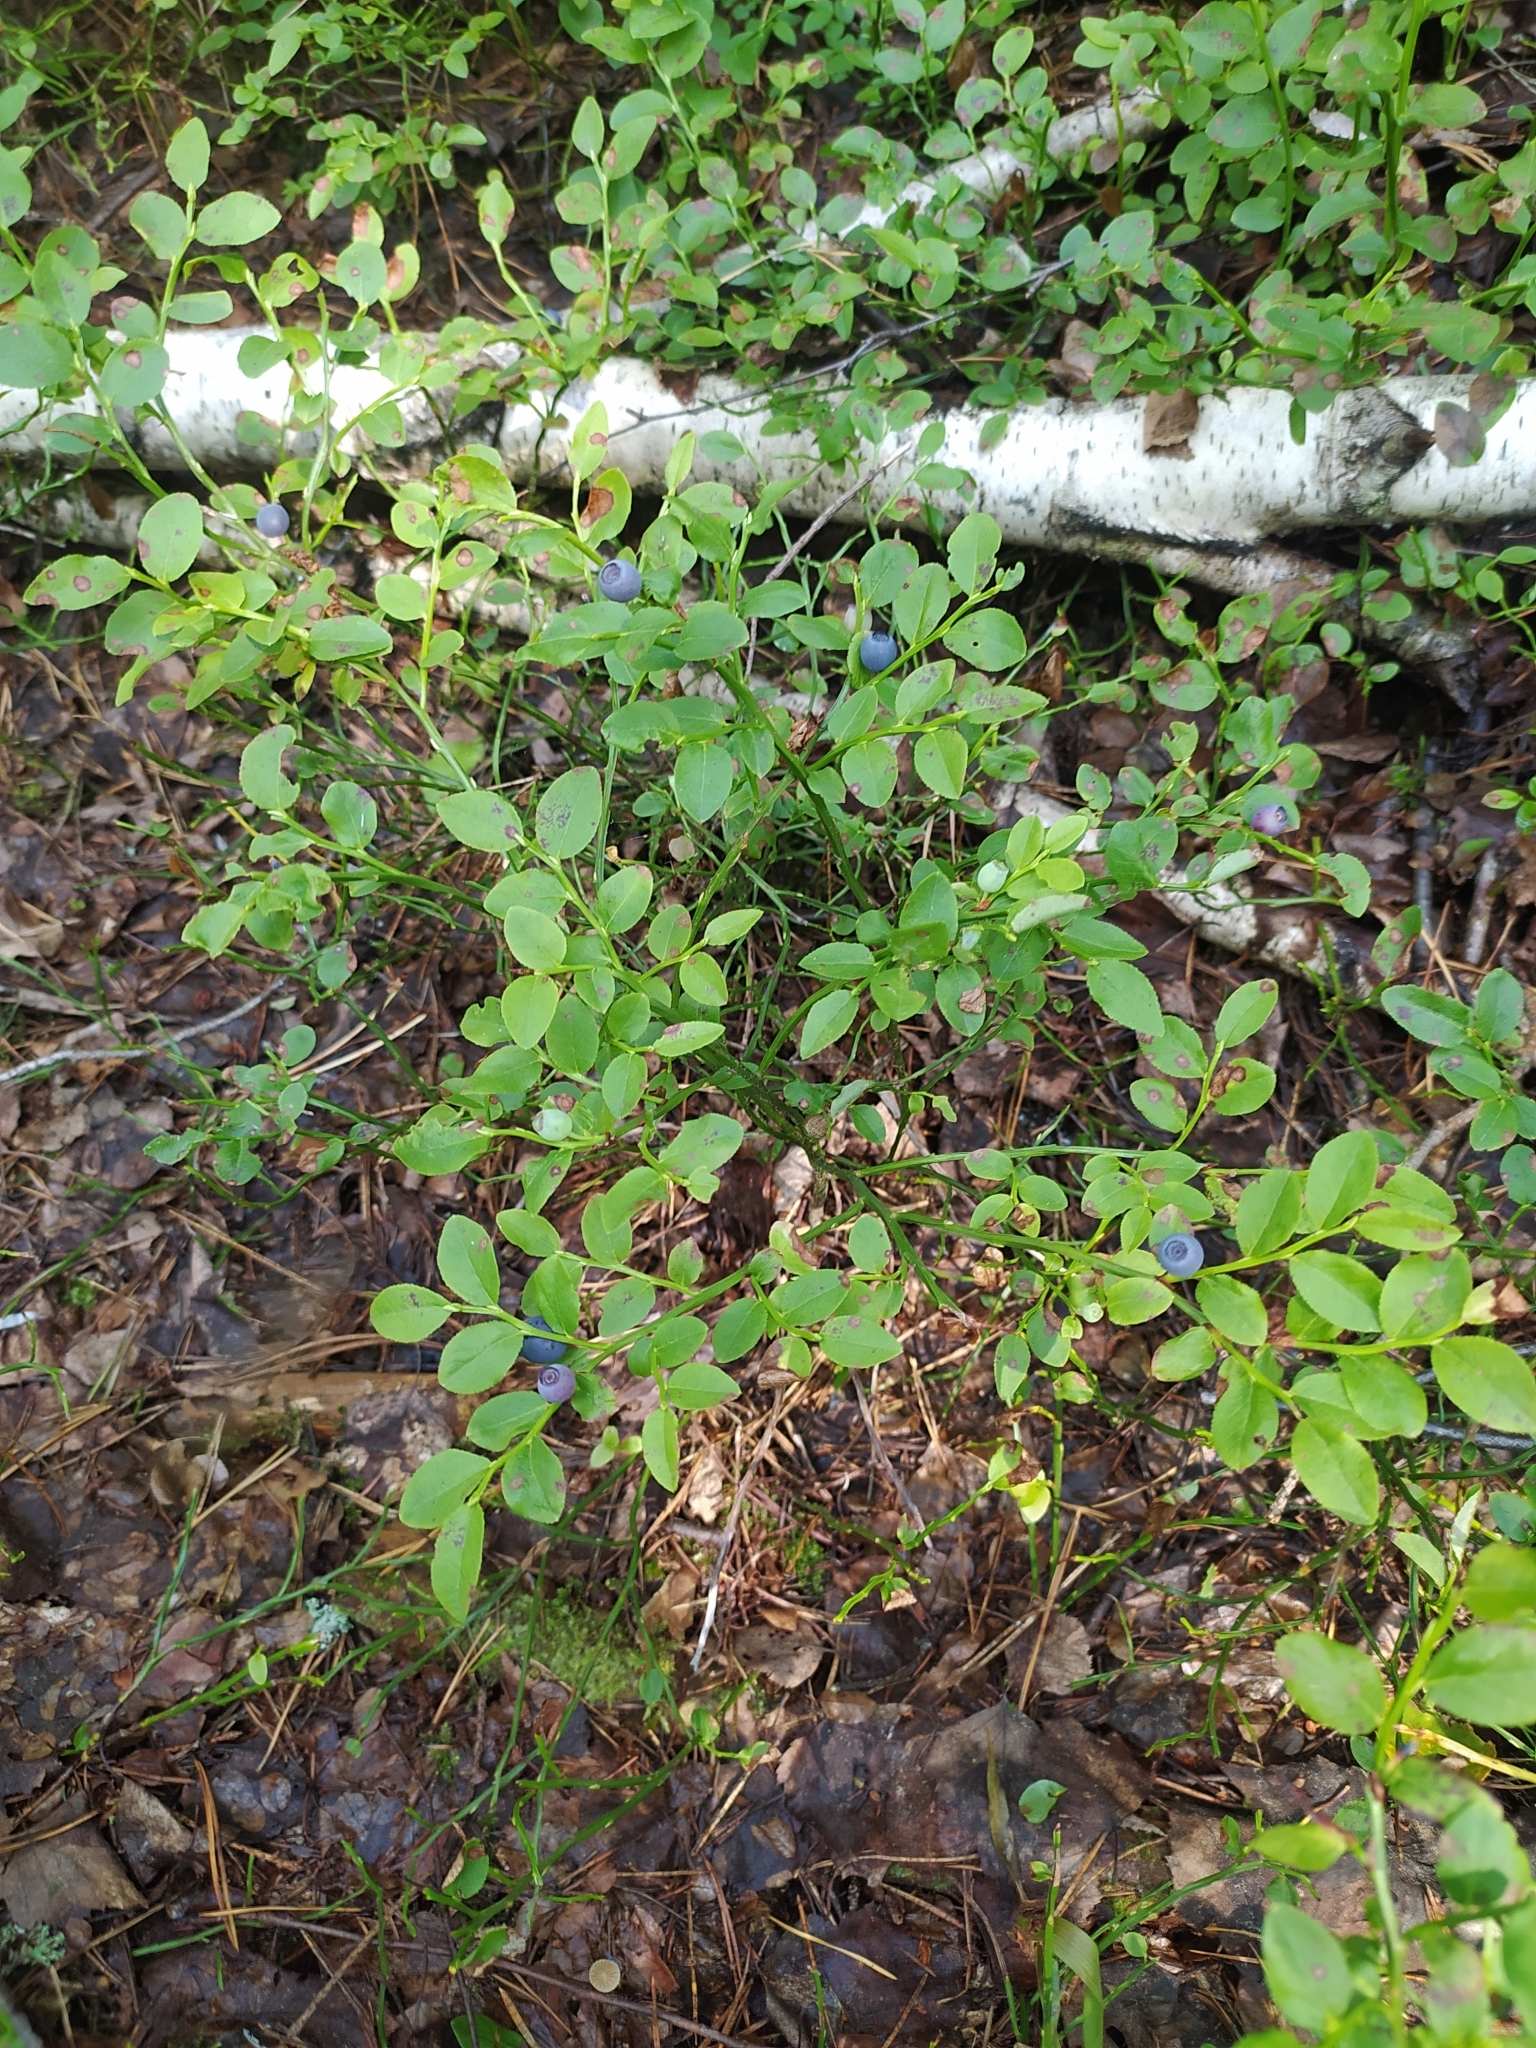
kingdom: Plantae
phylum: Tracheophyta
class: Magnoliopsida
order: Ericales
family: Ericaceae
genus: Vaccinium
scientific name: Vaccinium myrtillus
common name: Bilberry
